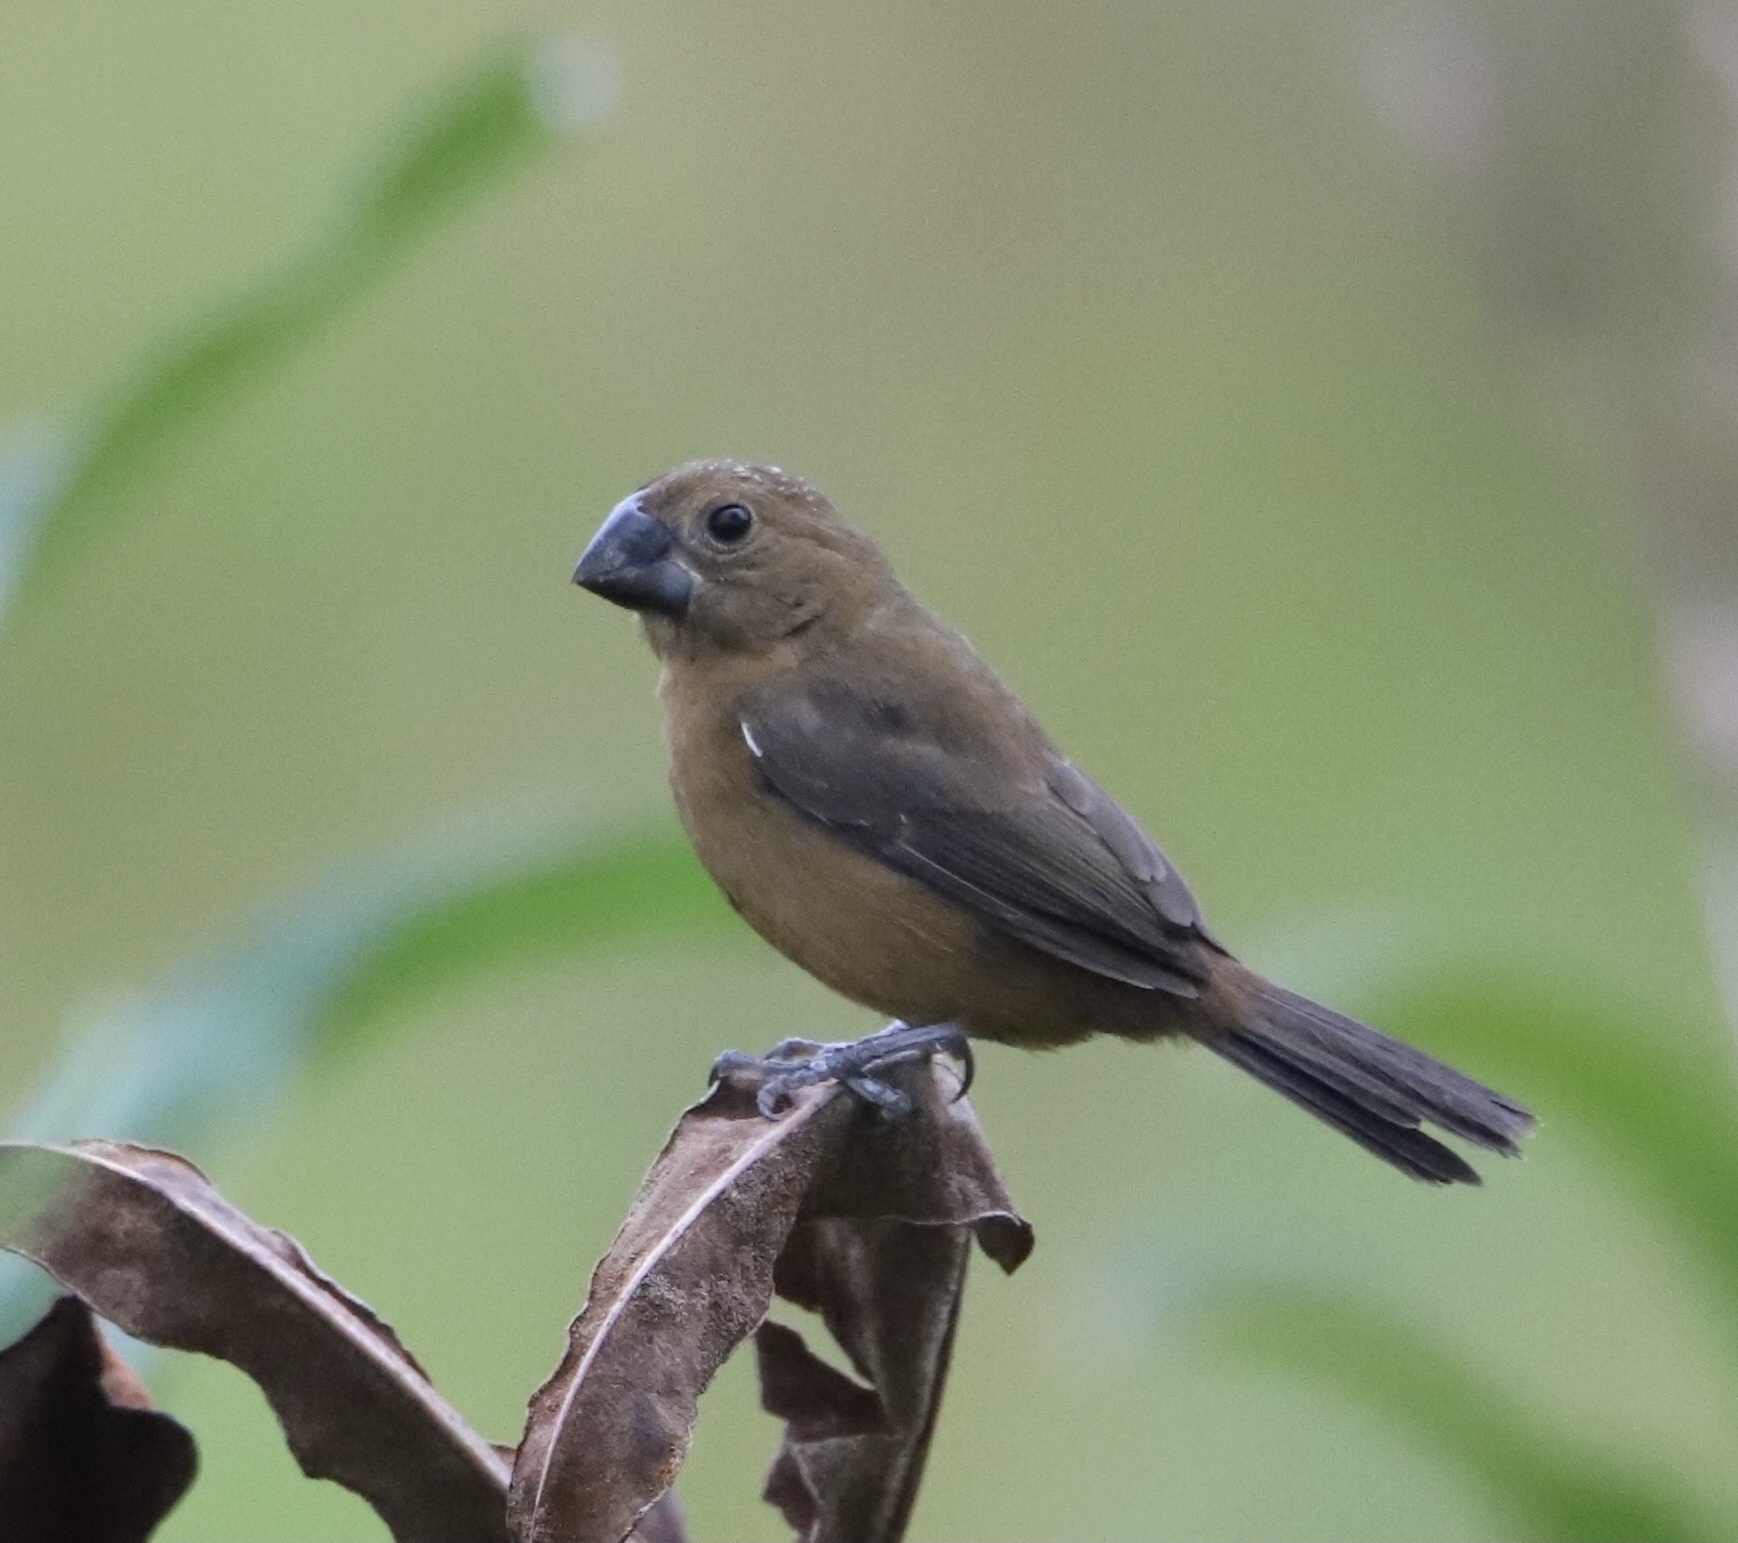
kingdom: Animalia
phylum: Chordata
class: Aves
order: Passeriformes
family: Thraupidae
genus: Sporophila
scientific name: Sporophila funerea
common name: Thick-billed seed-finch
